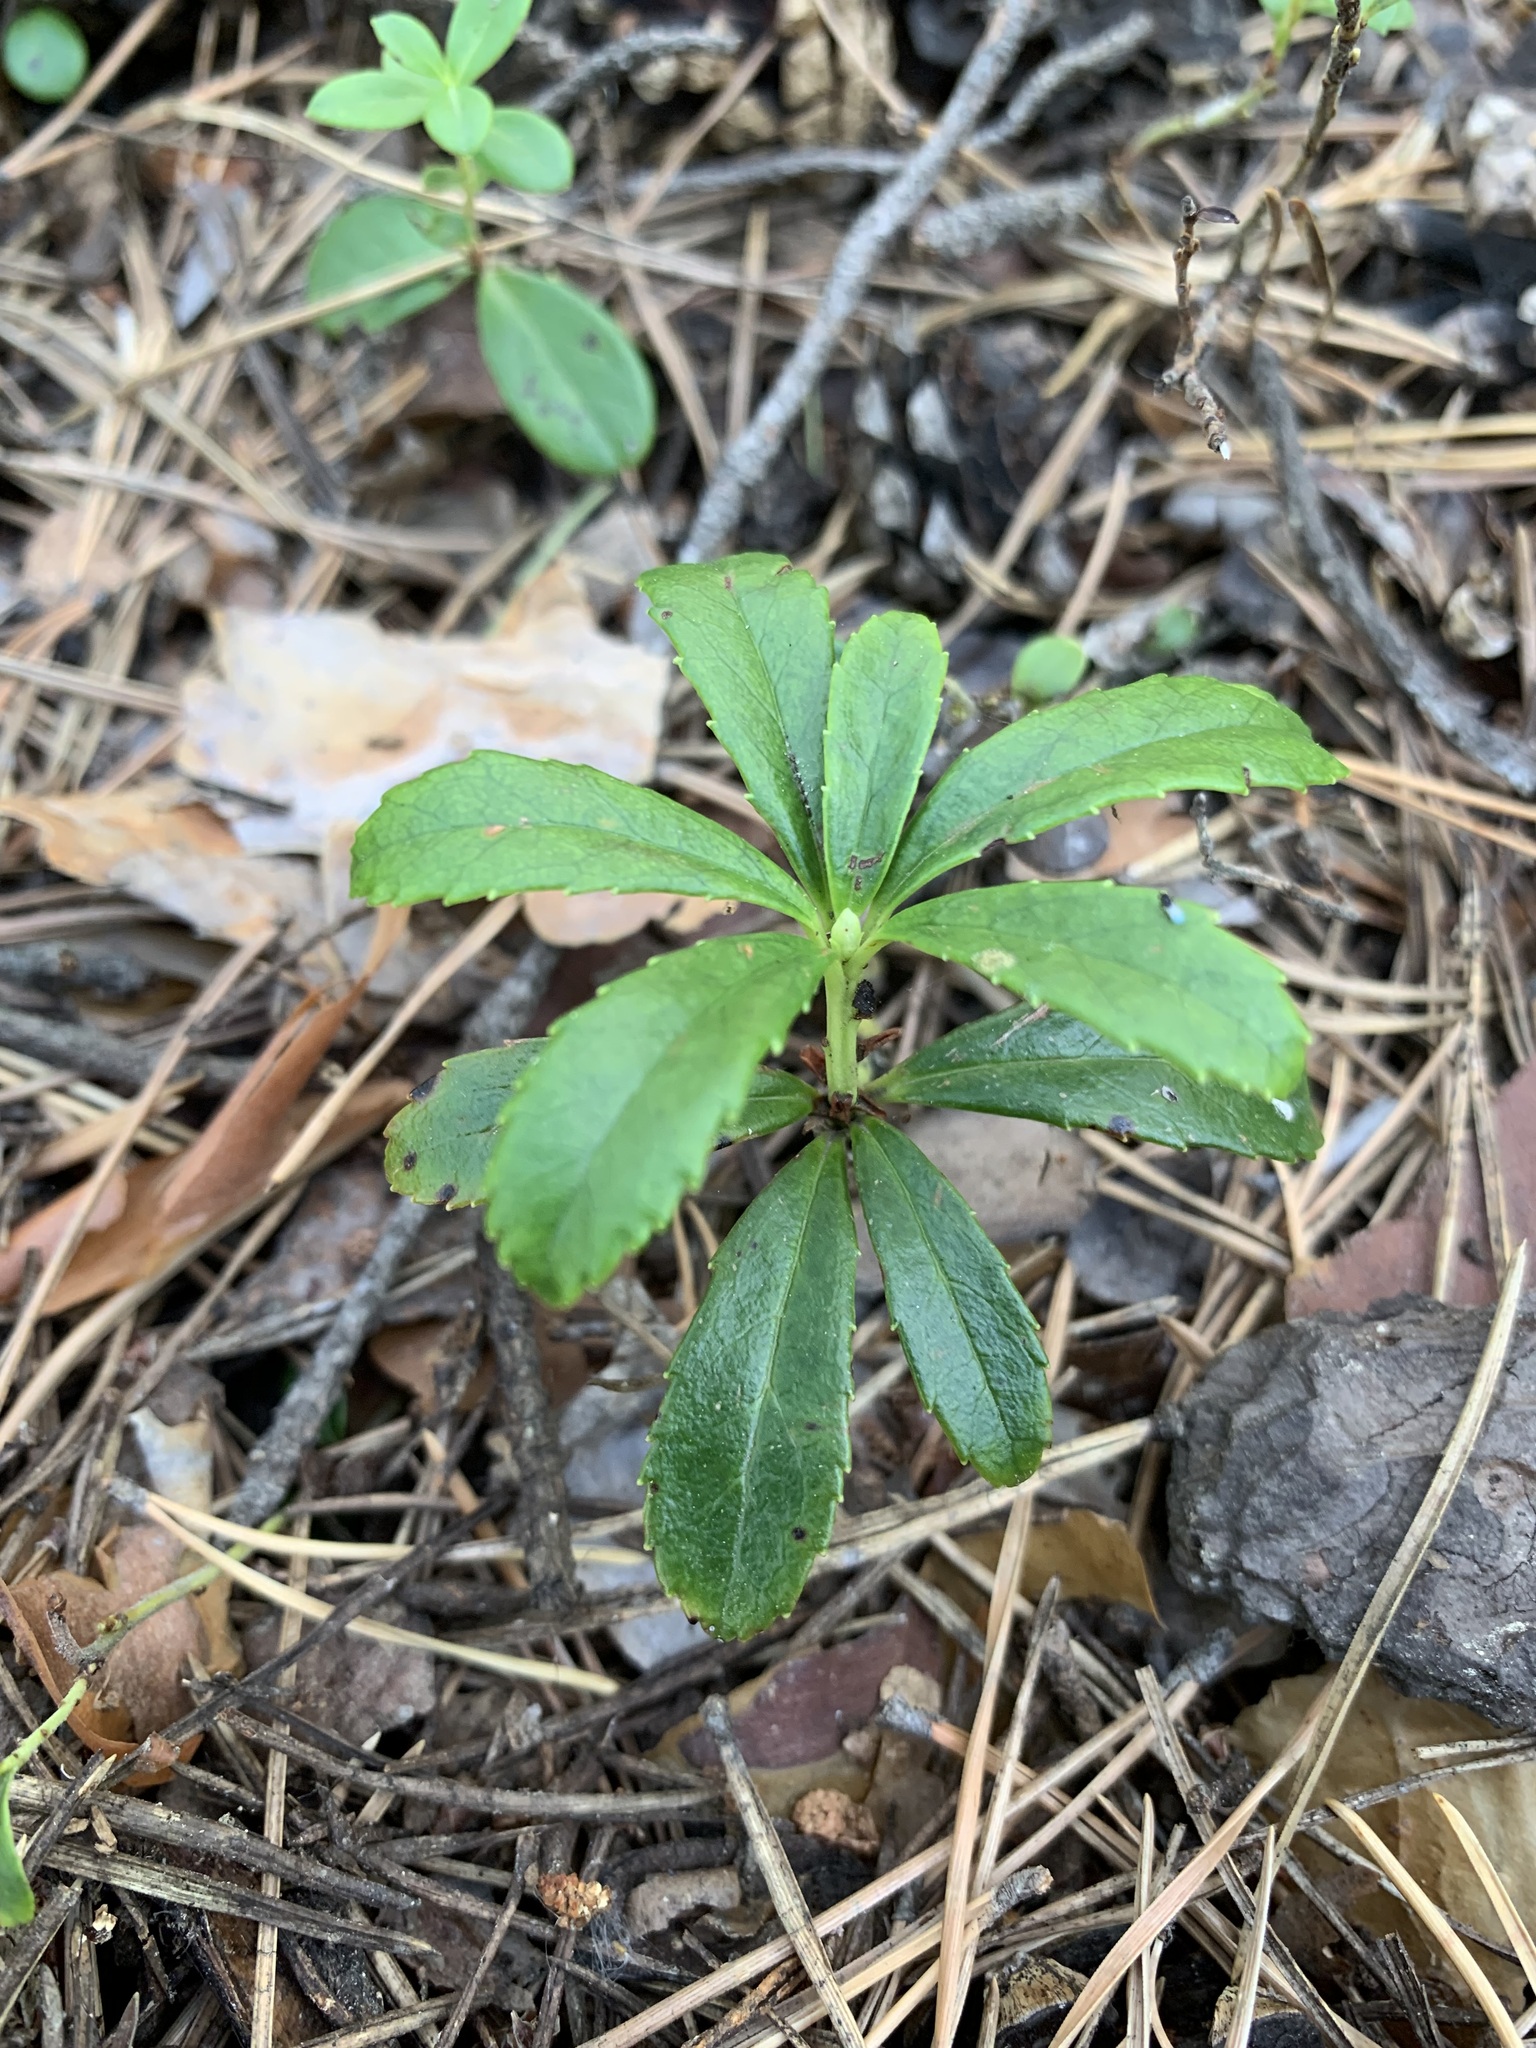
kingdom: Plantae
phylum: Tracheophyta
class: Magnoliopsida
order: Ericales
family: Ericaceae
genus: Chimaphila
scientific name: Chimaphila umbellata
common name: Pipsissewa
